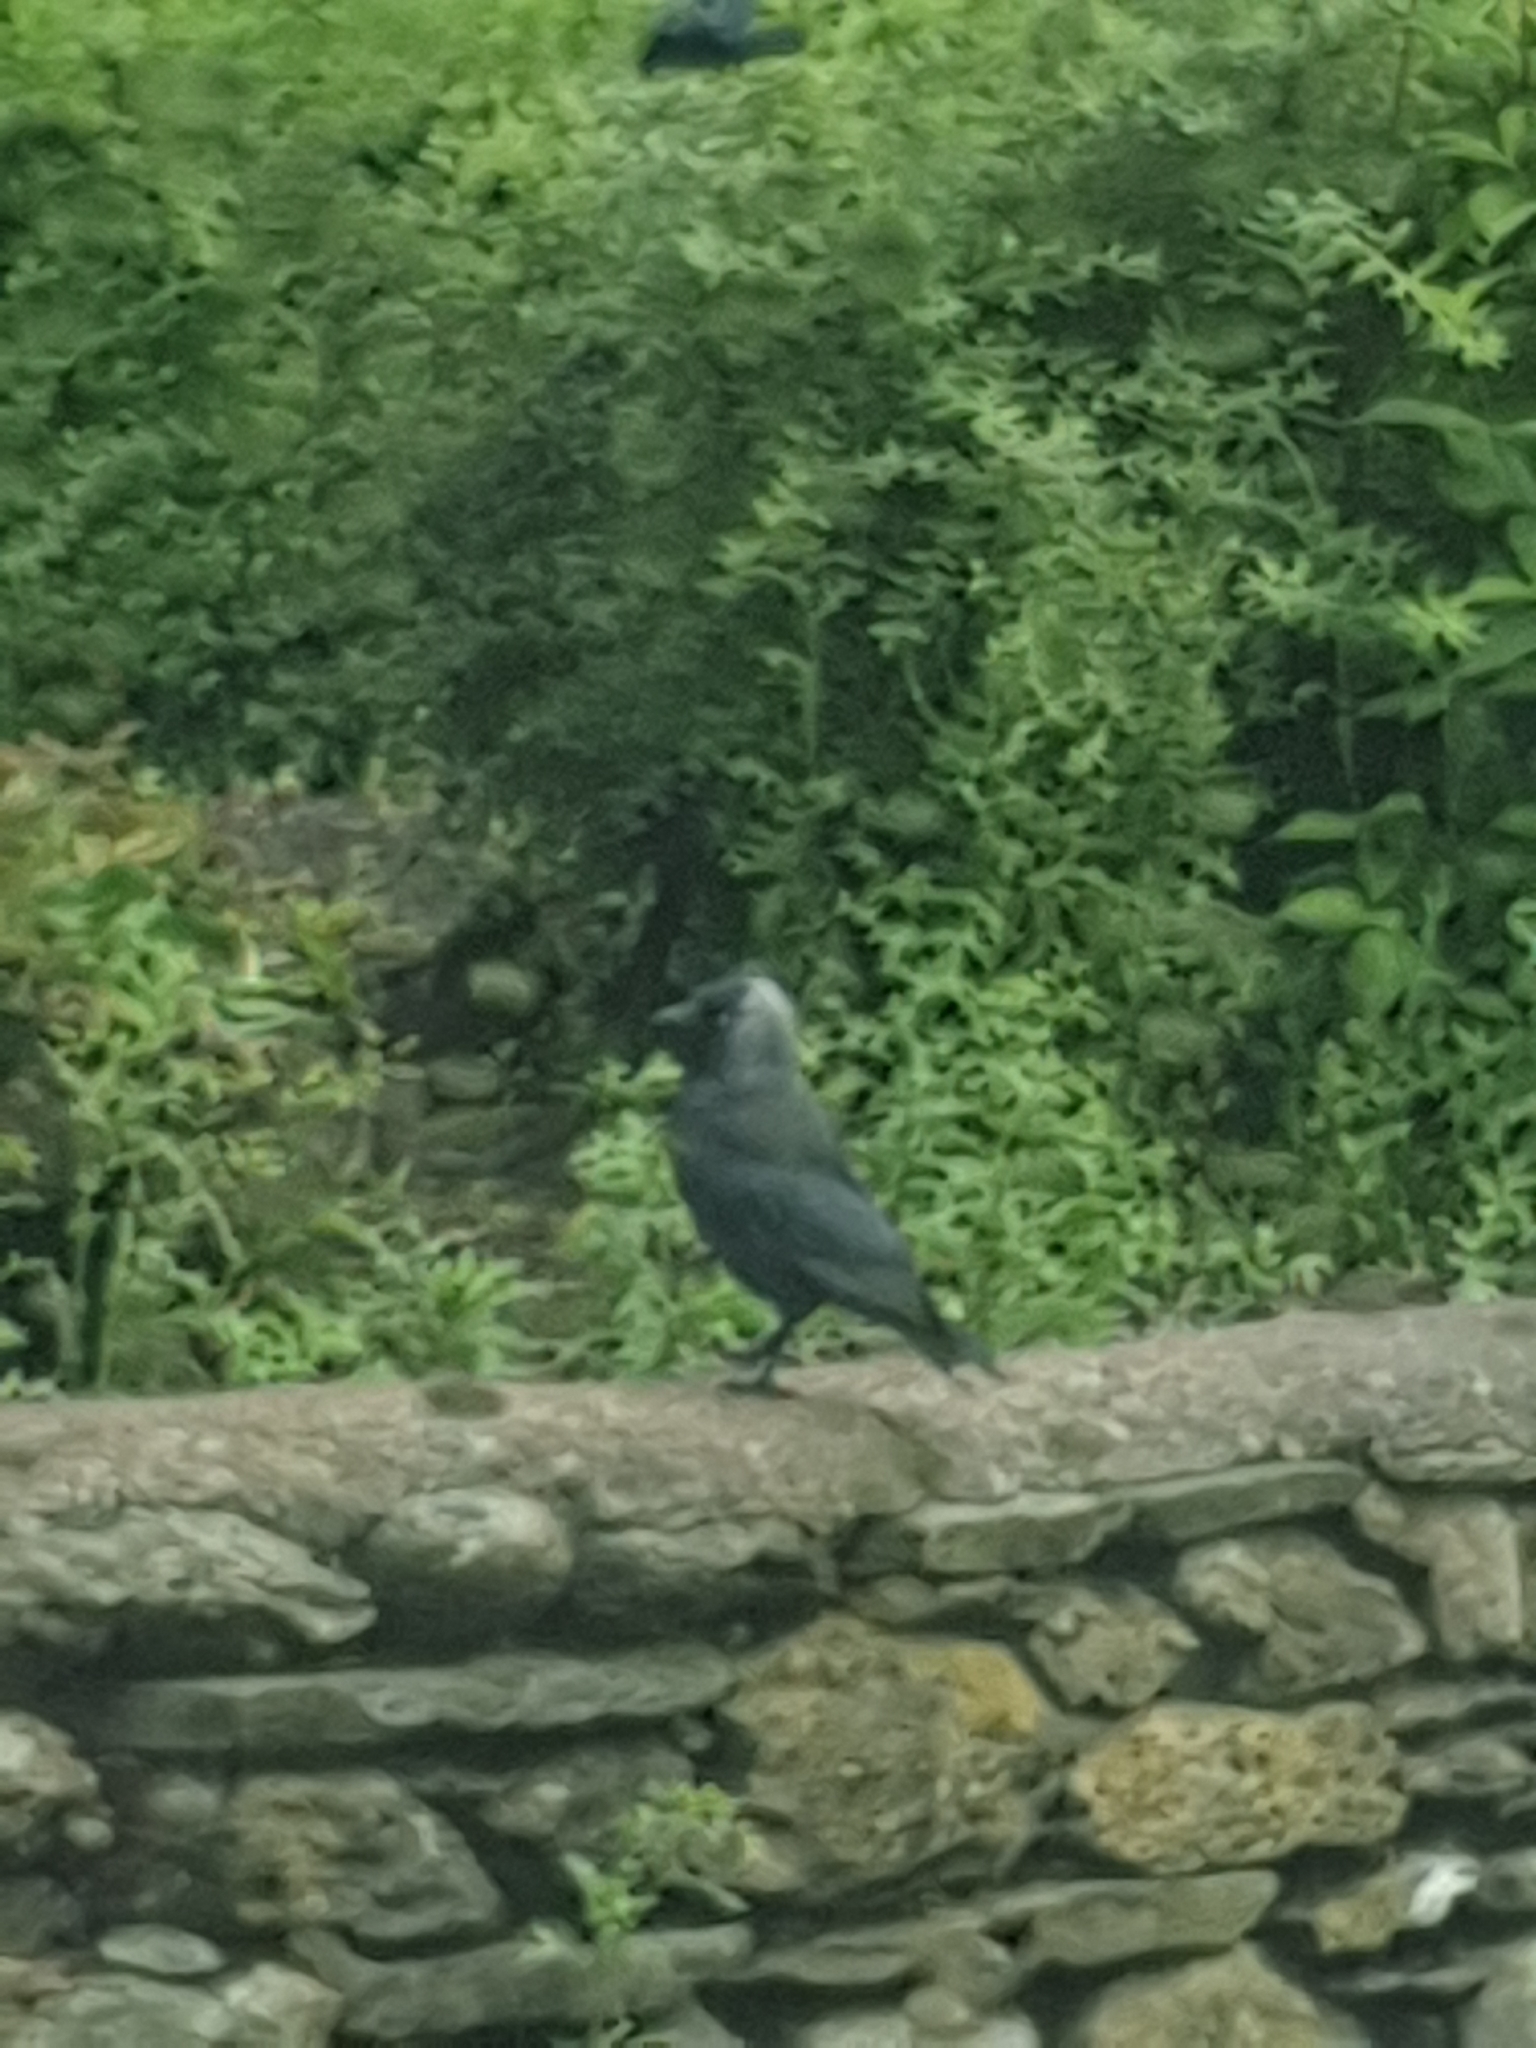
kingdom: Animalia
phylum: Chordata
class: Aves
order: Passeriformes
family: Corvidae
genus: Coloeus
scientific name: Coloeus monedula
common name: Western jackdaw
